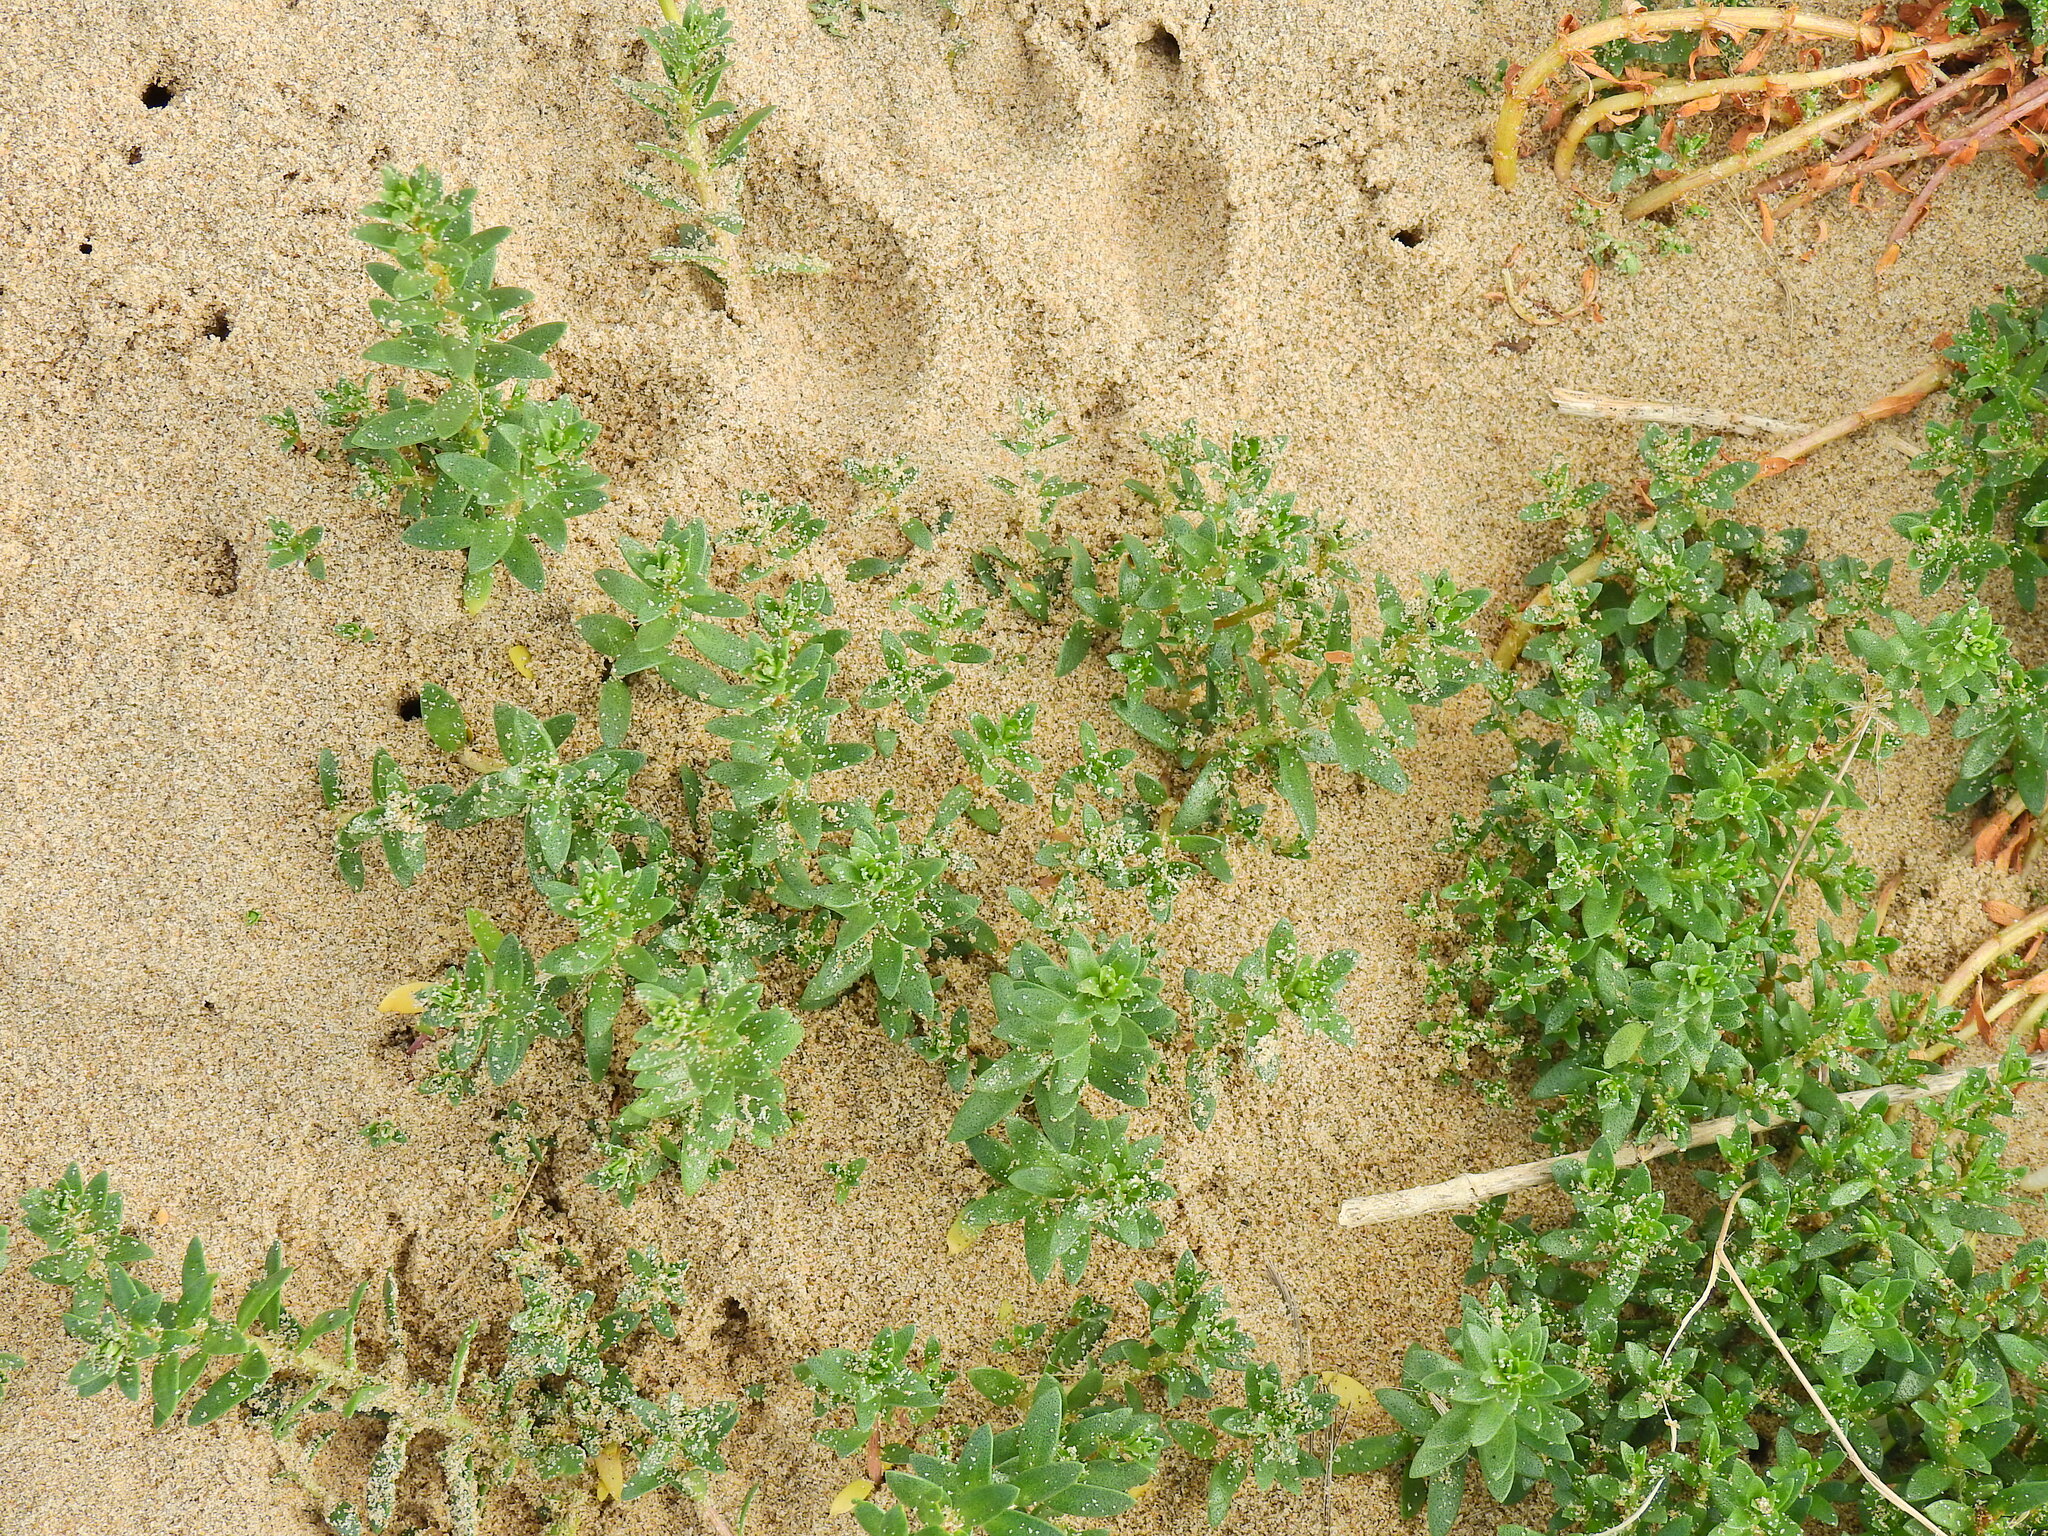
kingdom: Plantae
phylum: Tracheophyta
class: Magnoliopsida
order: Ericales
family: Primulaceae
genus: Lysimachia
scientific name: Lysimachia maritima
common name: Sea milkwort
